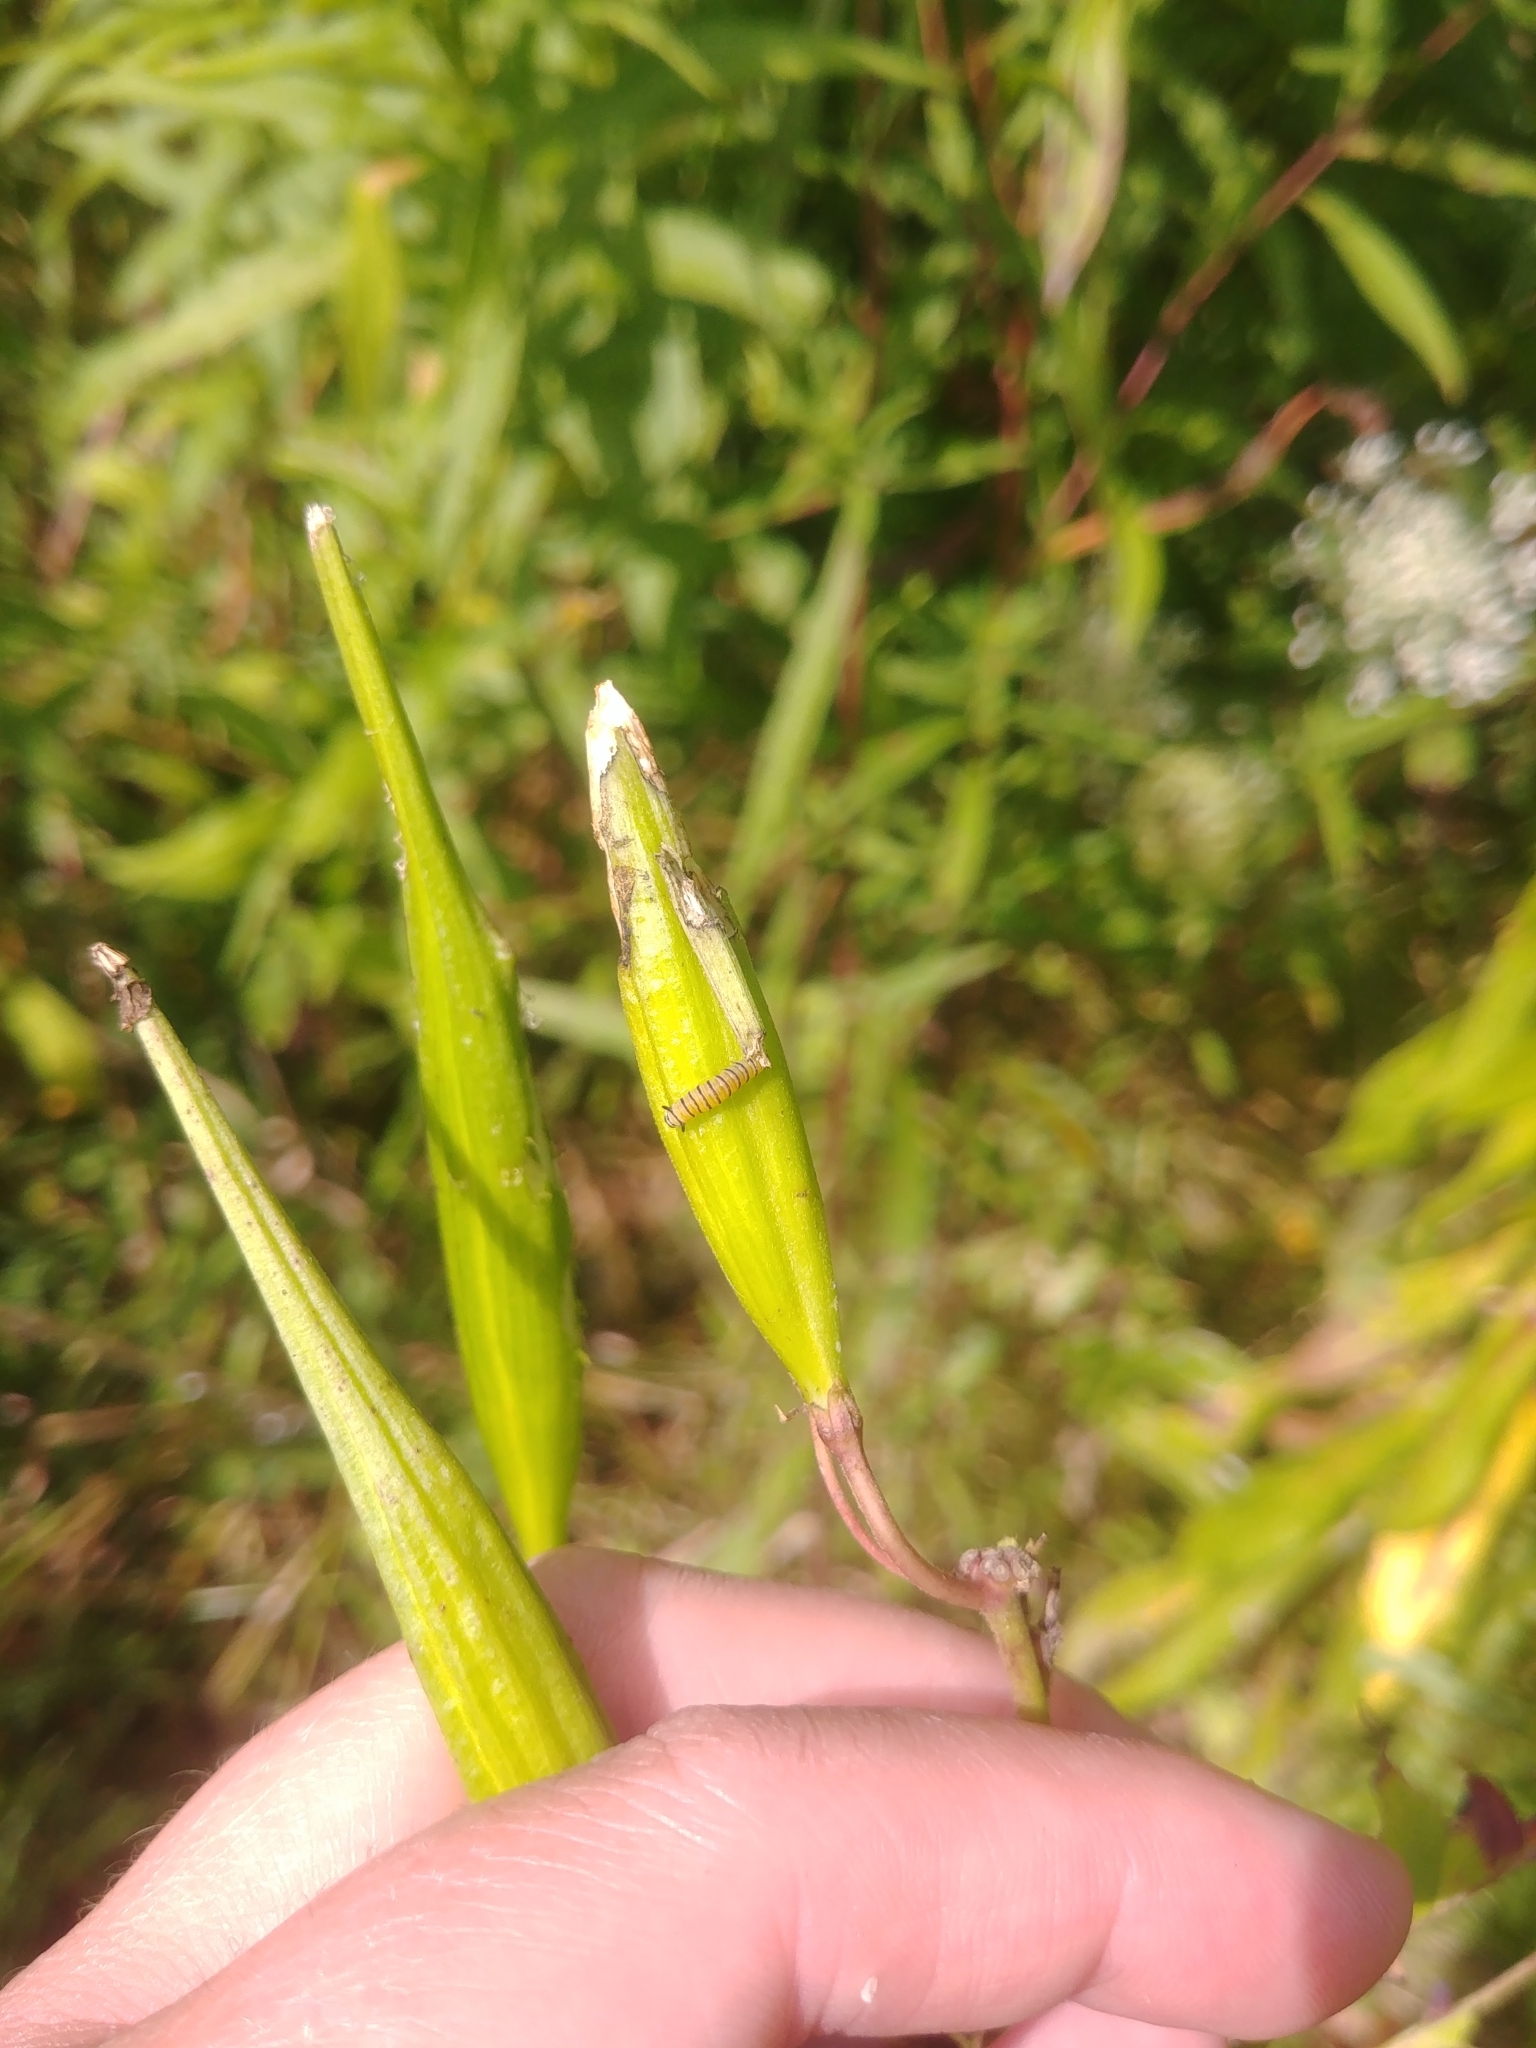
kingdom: Animalia
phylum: Arthropoda
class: Insecta
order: Lepidoptera
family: Nymphalidae
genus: Danaus
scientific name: Danaus plexippus
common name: Monarch
